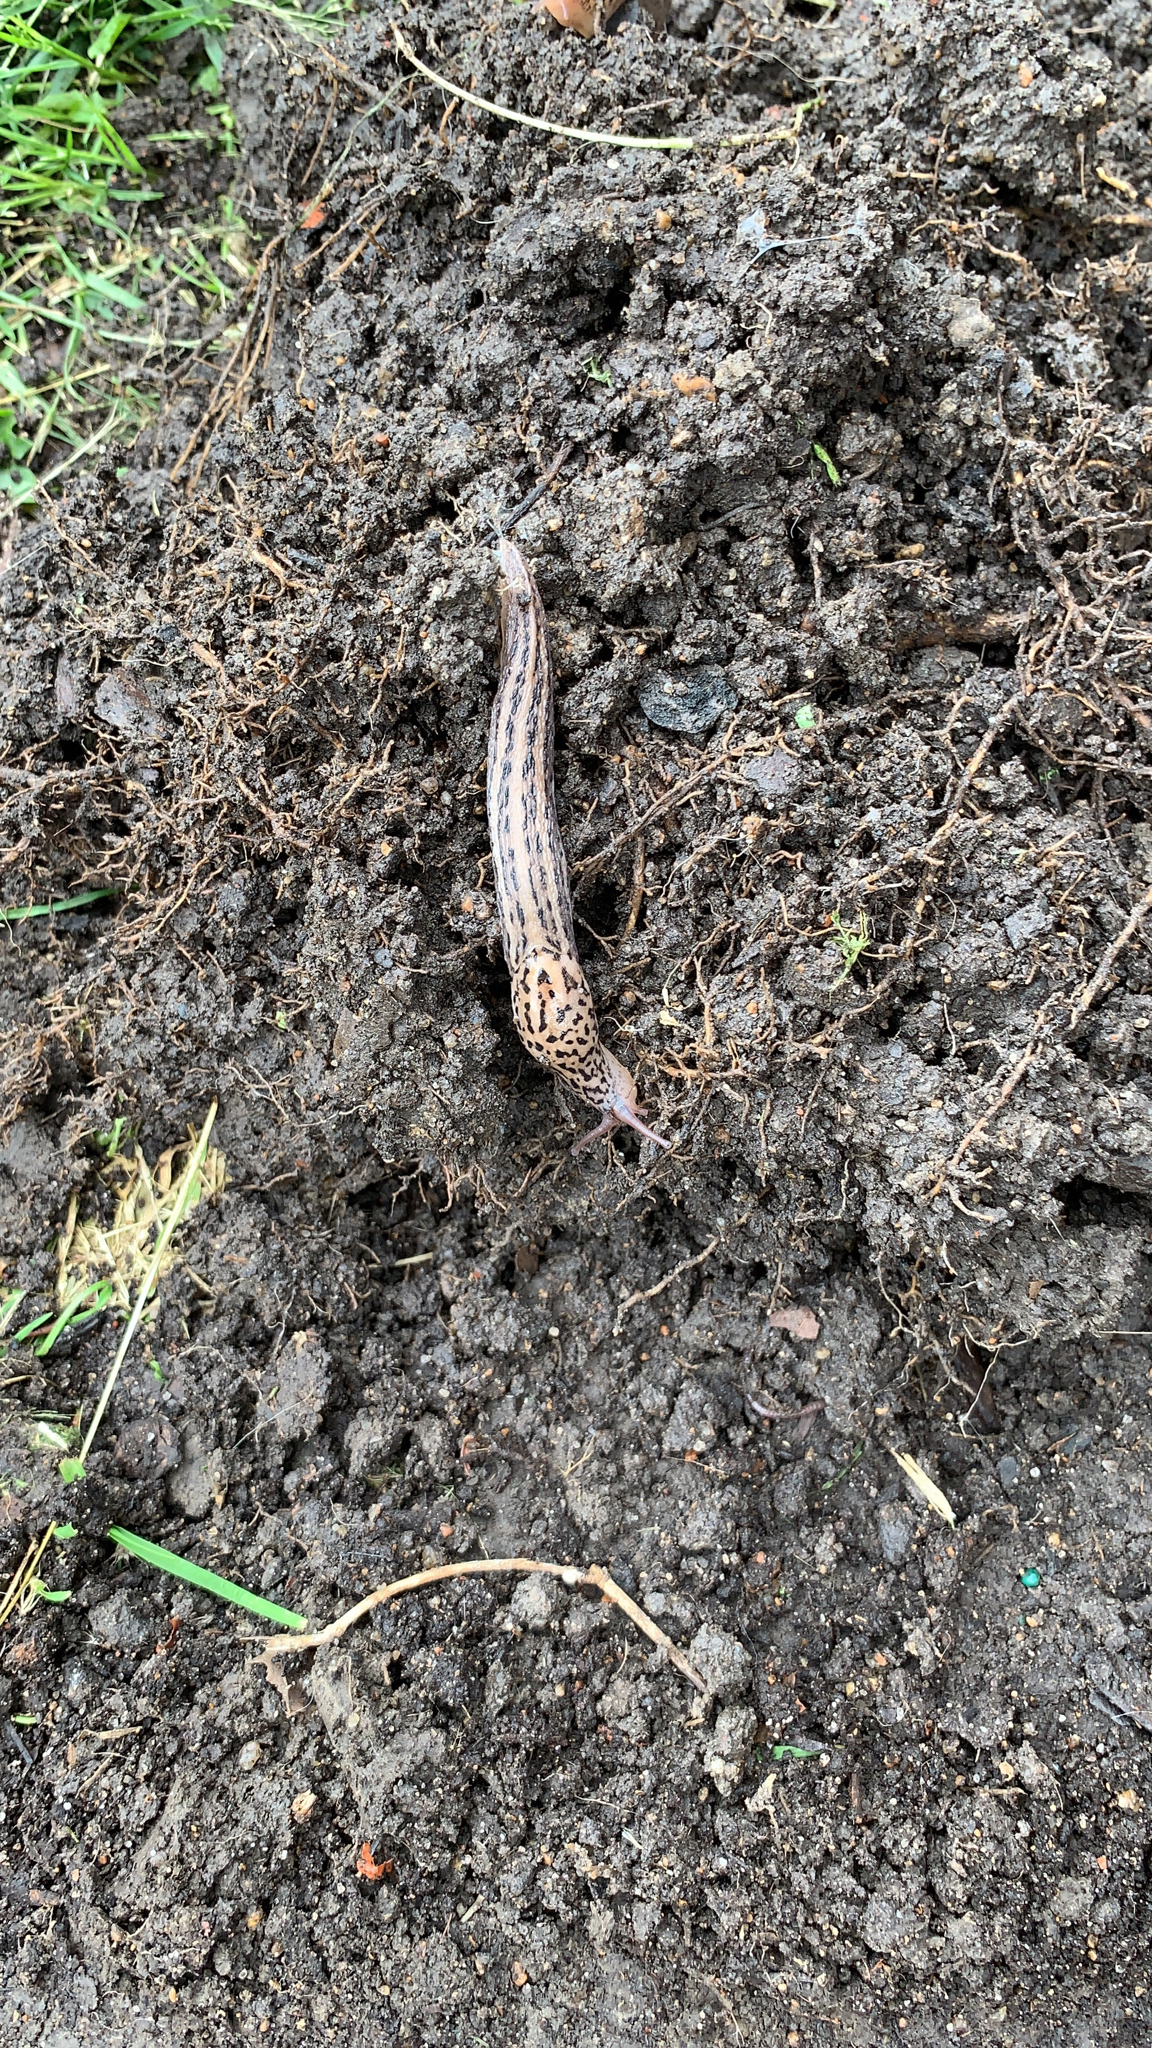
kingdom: Animalia
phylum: Mollusca
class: Gastropoda
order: Stylommatophora
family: Limacidae
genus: Limax
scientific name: Limax maximus
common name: Great grey slug
